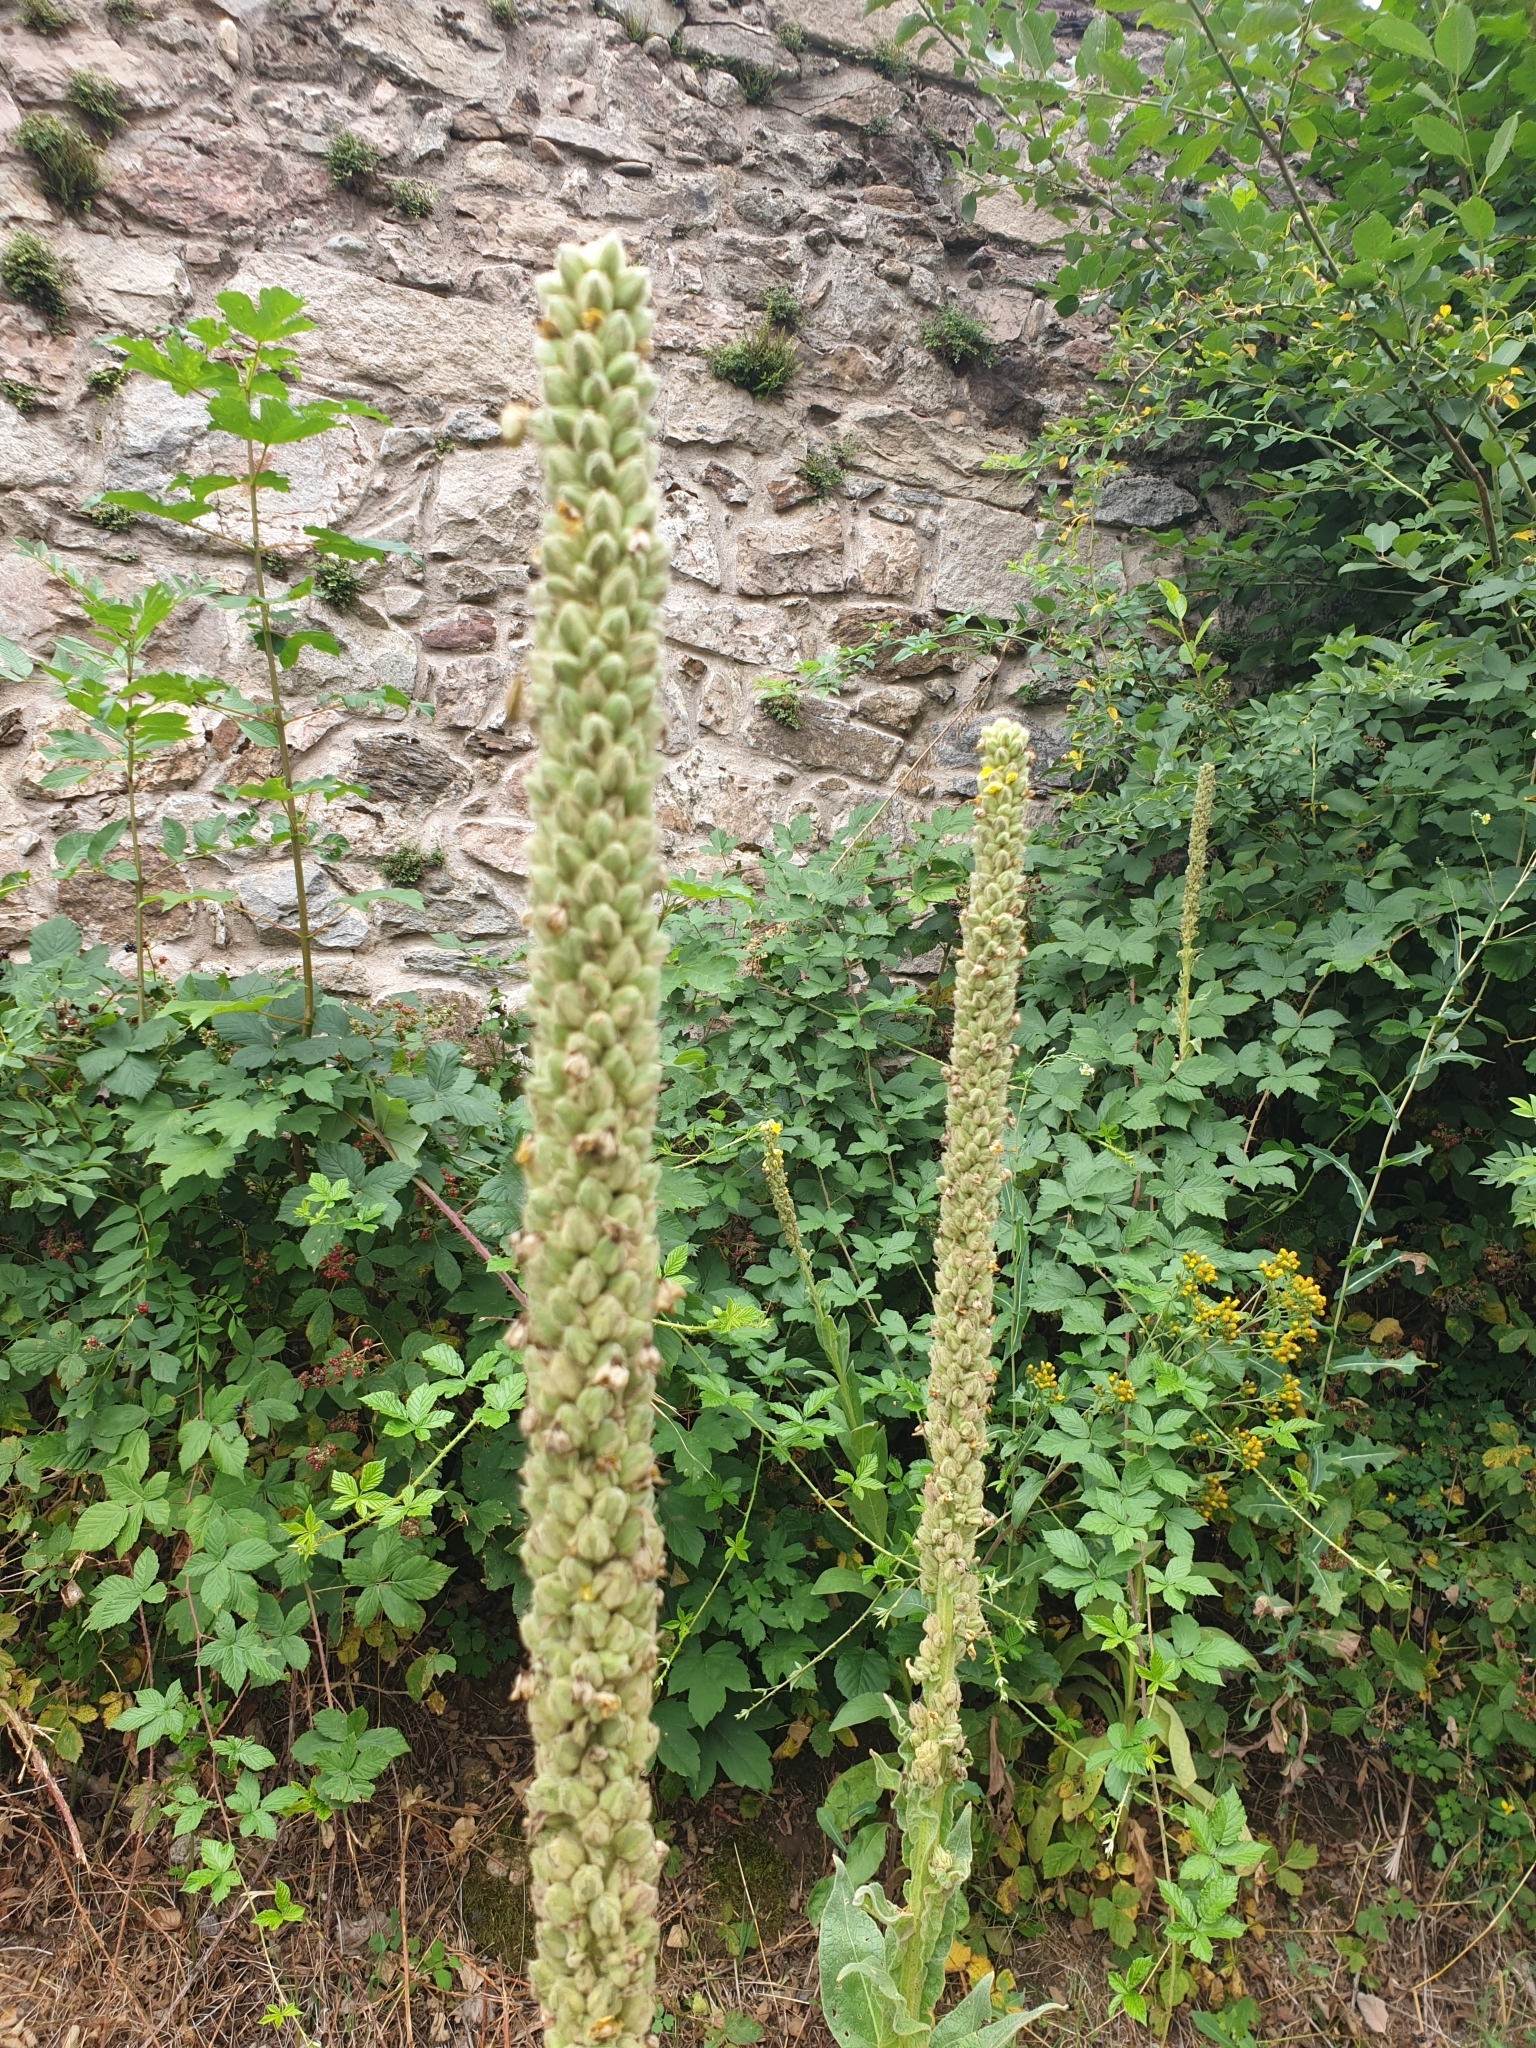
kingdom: Plantae
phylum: Tracheophyta
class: Magnoliopsida
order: Lamiales
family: Scrophulariaceae
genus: Verbascum
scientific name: Verbascum thapsus
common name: Common mullein
